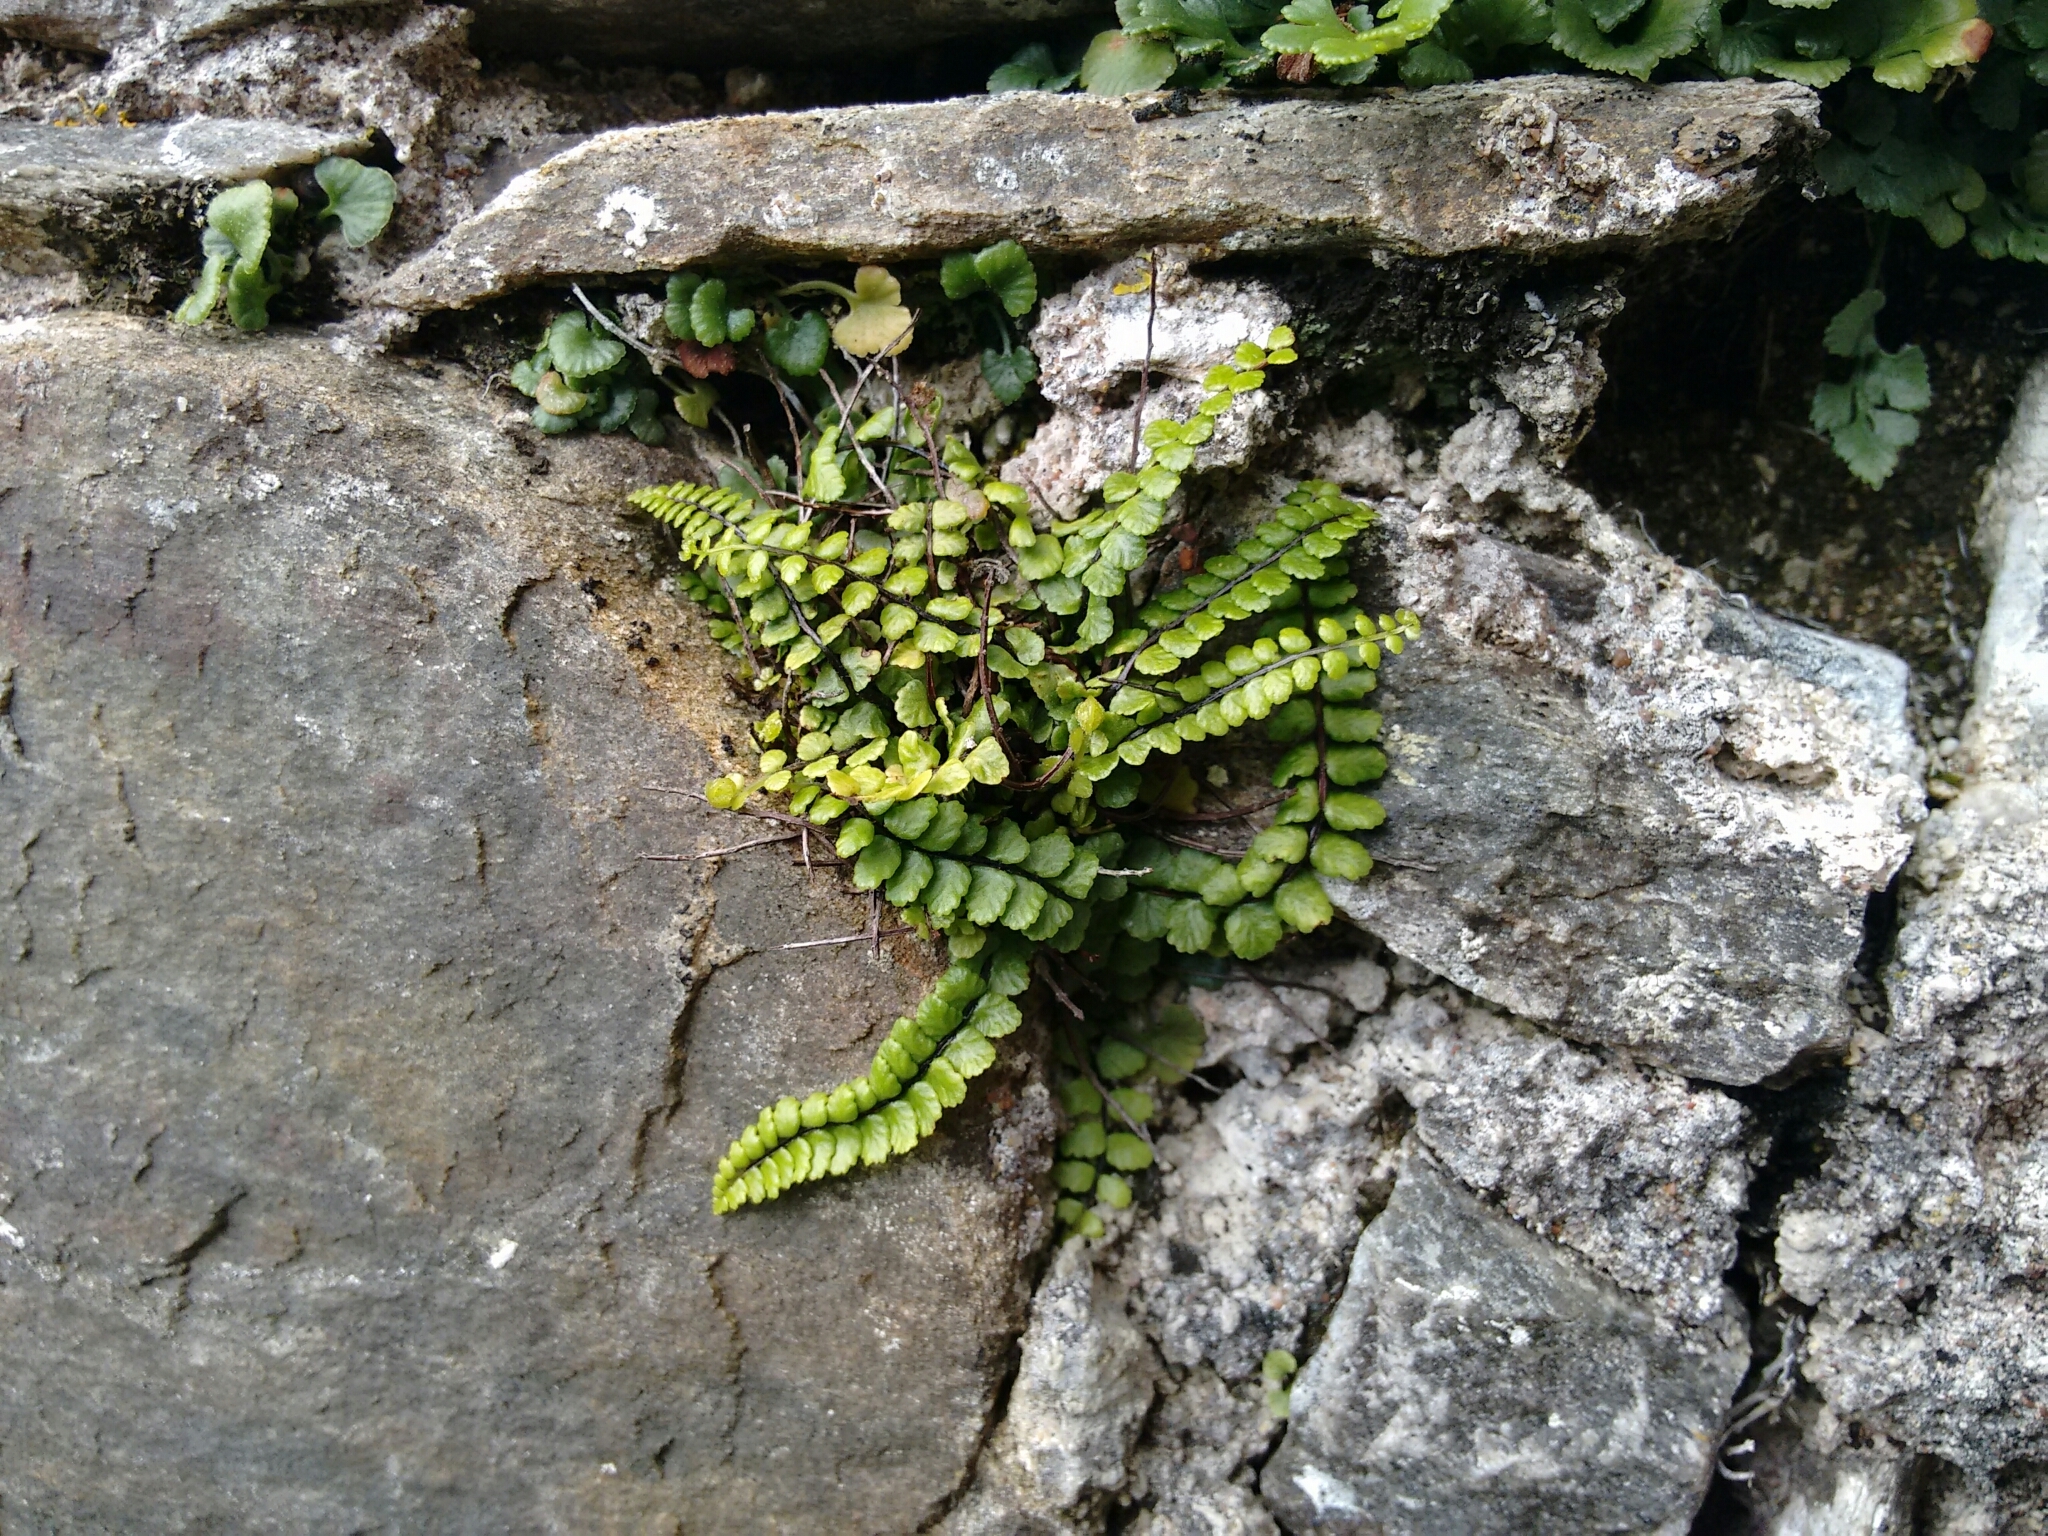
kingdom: Plantae
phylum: Tracheophyta
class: Polypodiopsida
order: Polypodiales
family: Aspleniaceae
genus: Asplenium
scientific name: Asplenium trichomanes
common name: Maidenhair spleenwort
